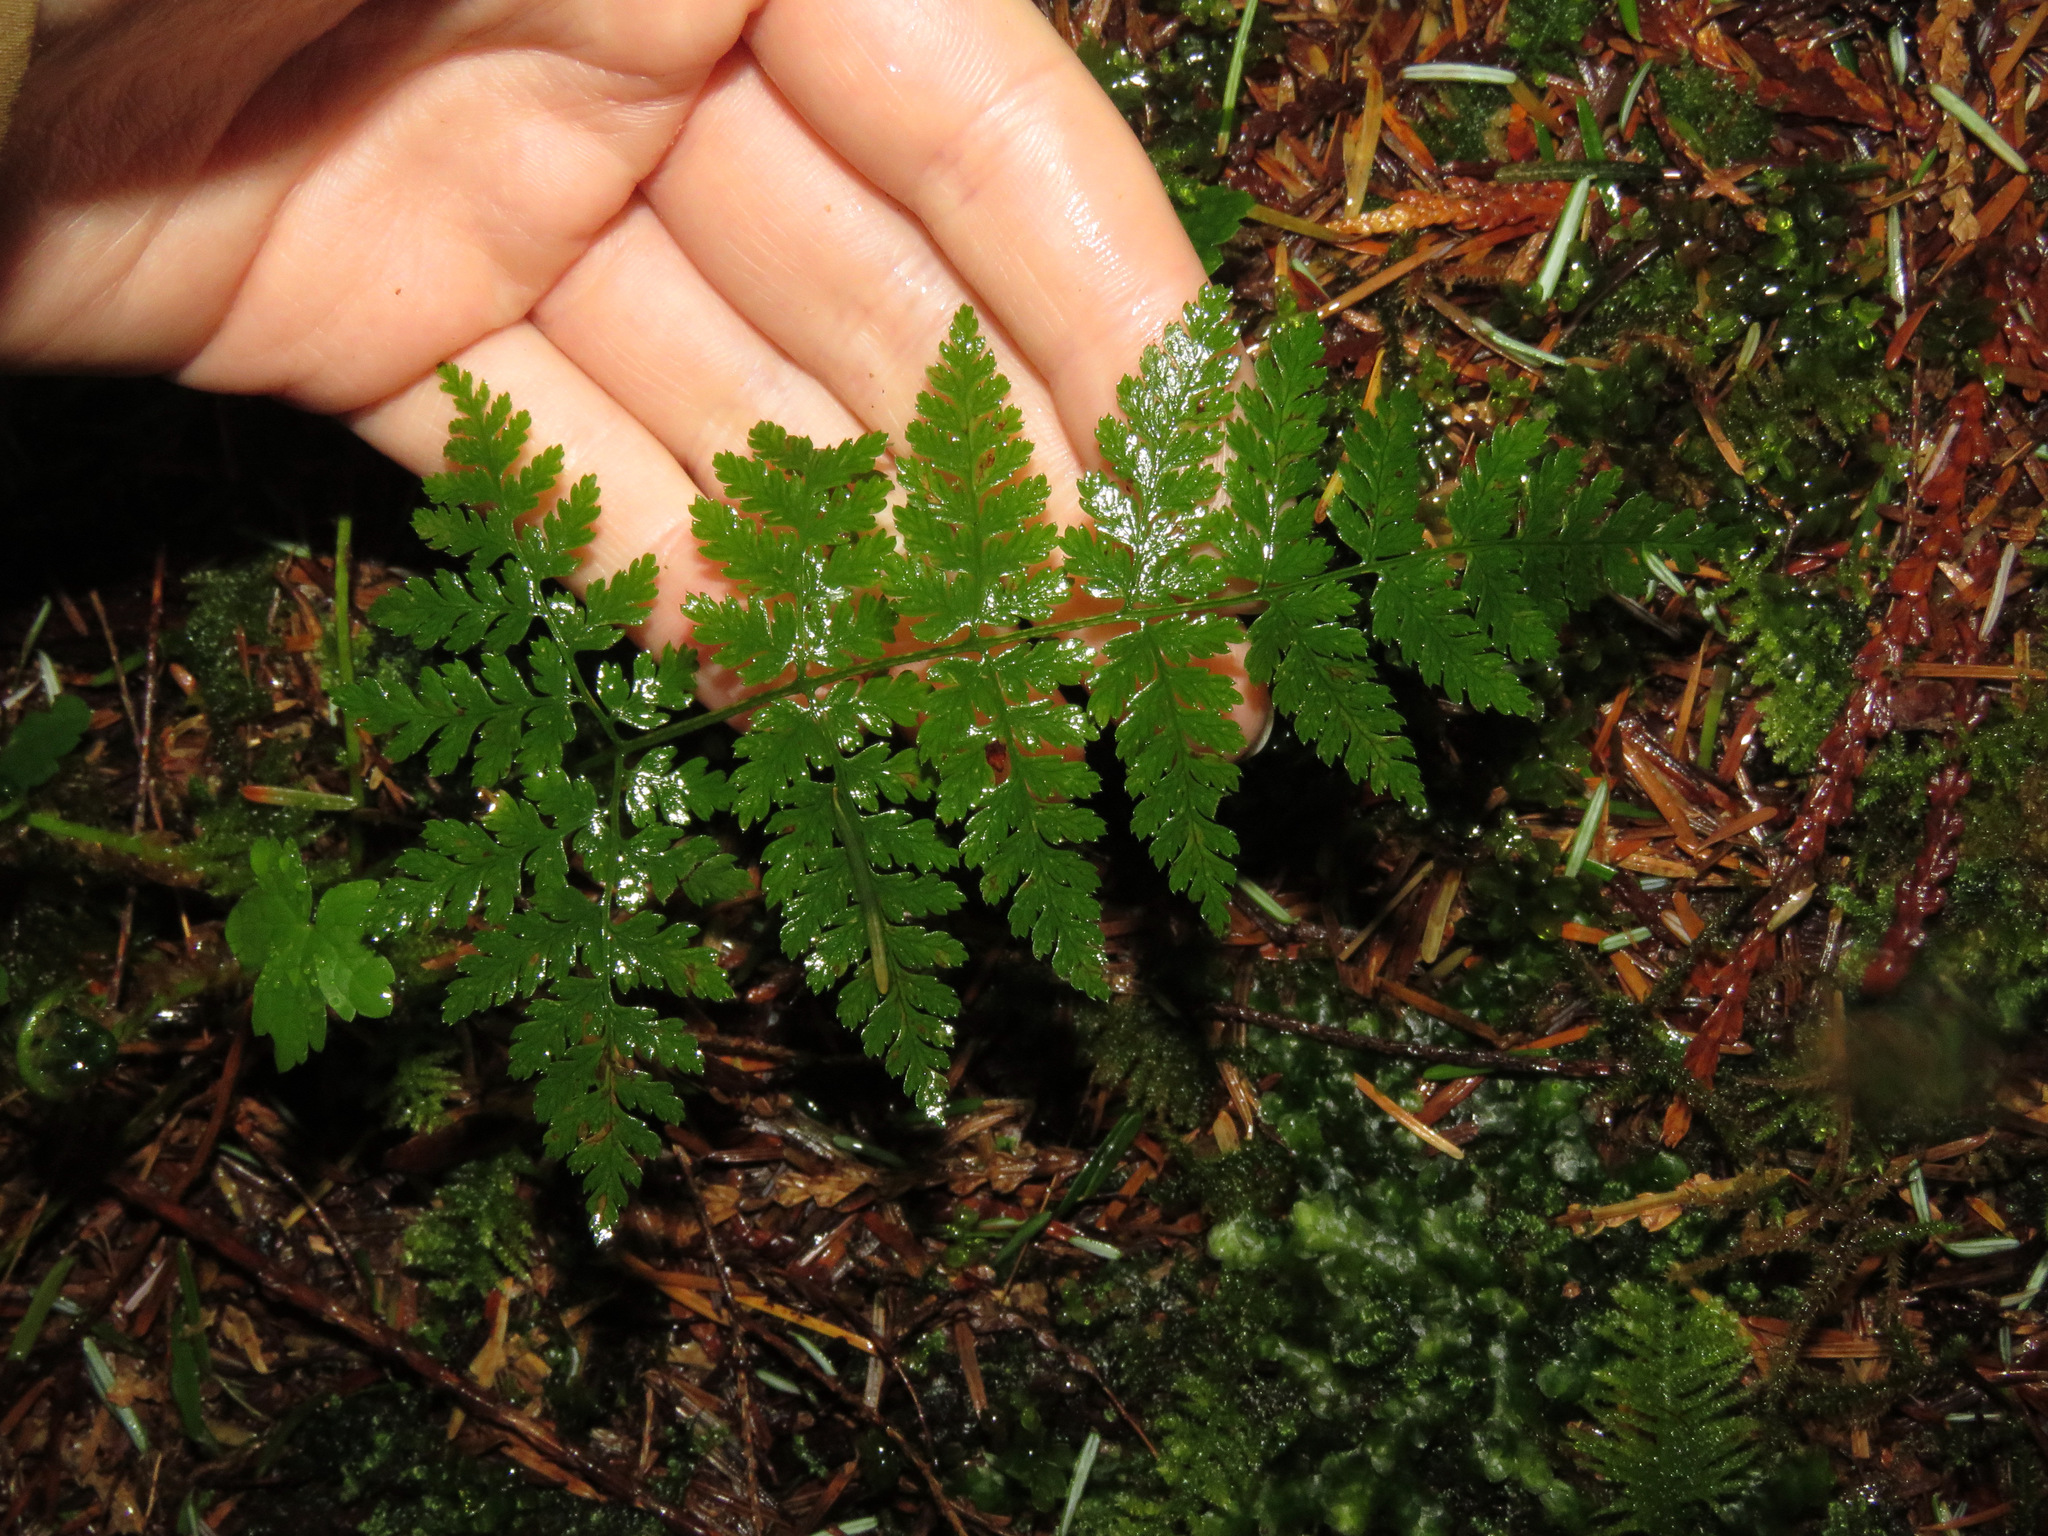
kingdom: Plantae
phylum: Tracheophyta
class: Polypodiopsida
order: Polypodiales
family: Dryopteridaceae
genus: Dryopteris
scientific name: Dryopteris expansa
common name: Northern buckler fern
